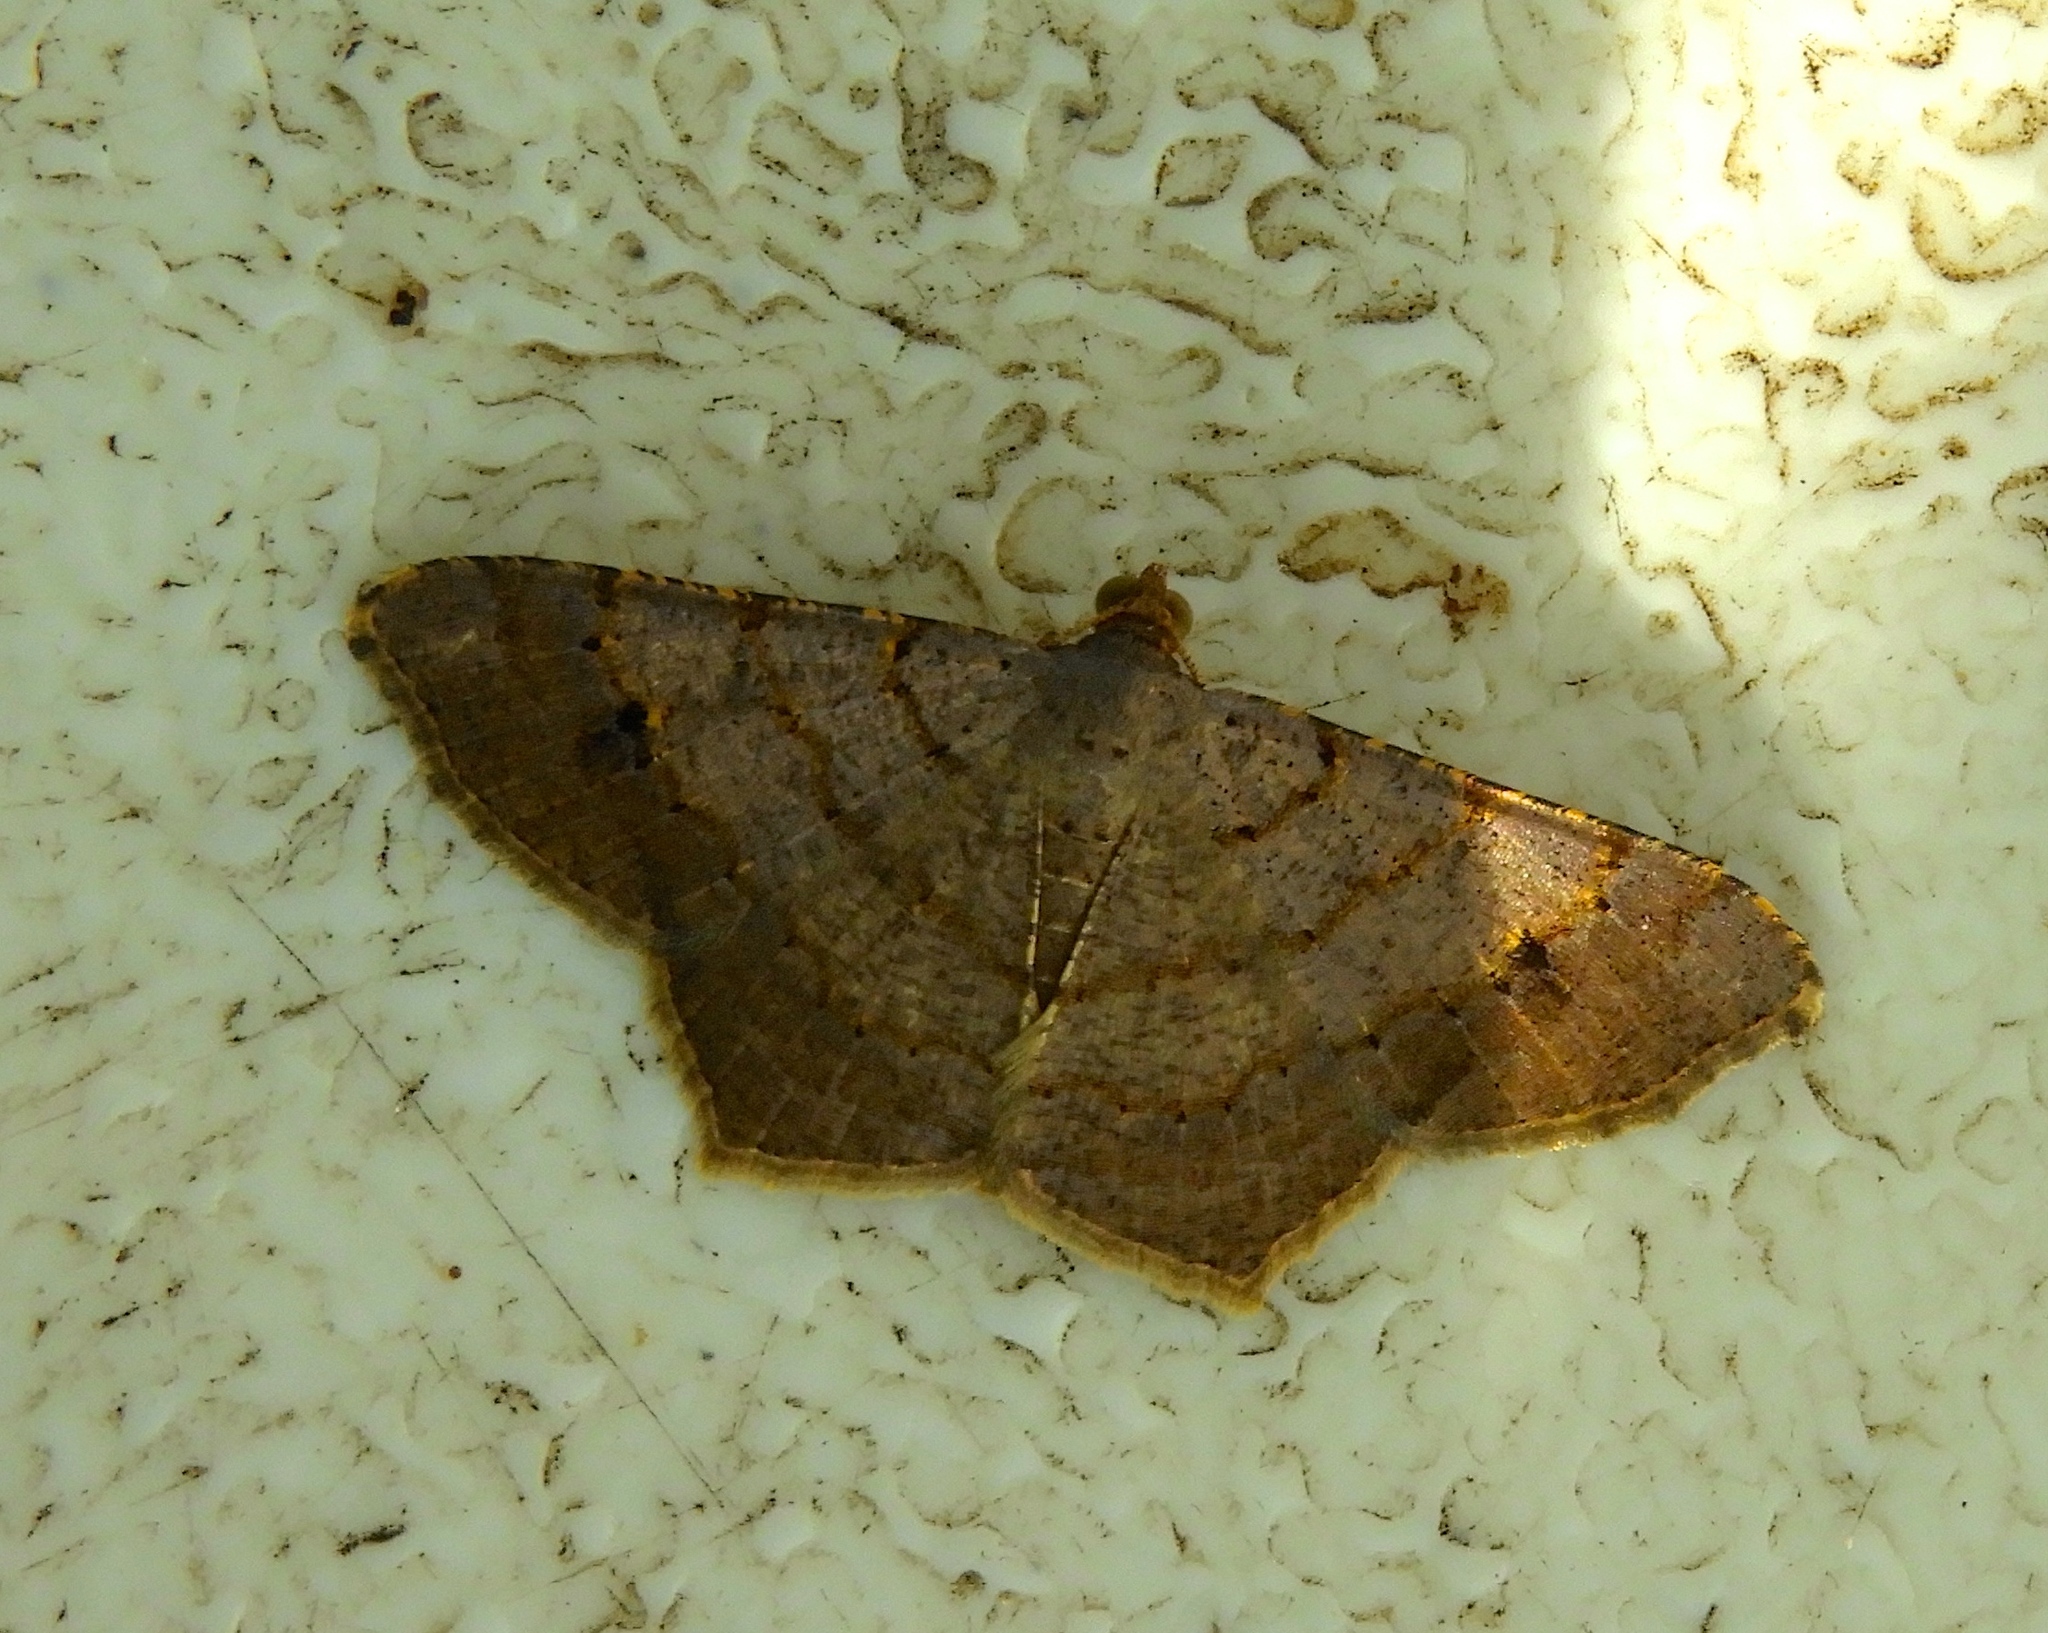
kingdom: Animalia
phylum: Arthropoda
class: Insecta
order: Lepidoptera
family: Geometridae
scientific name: Geometridae
